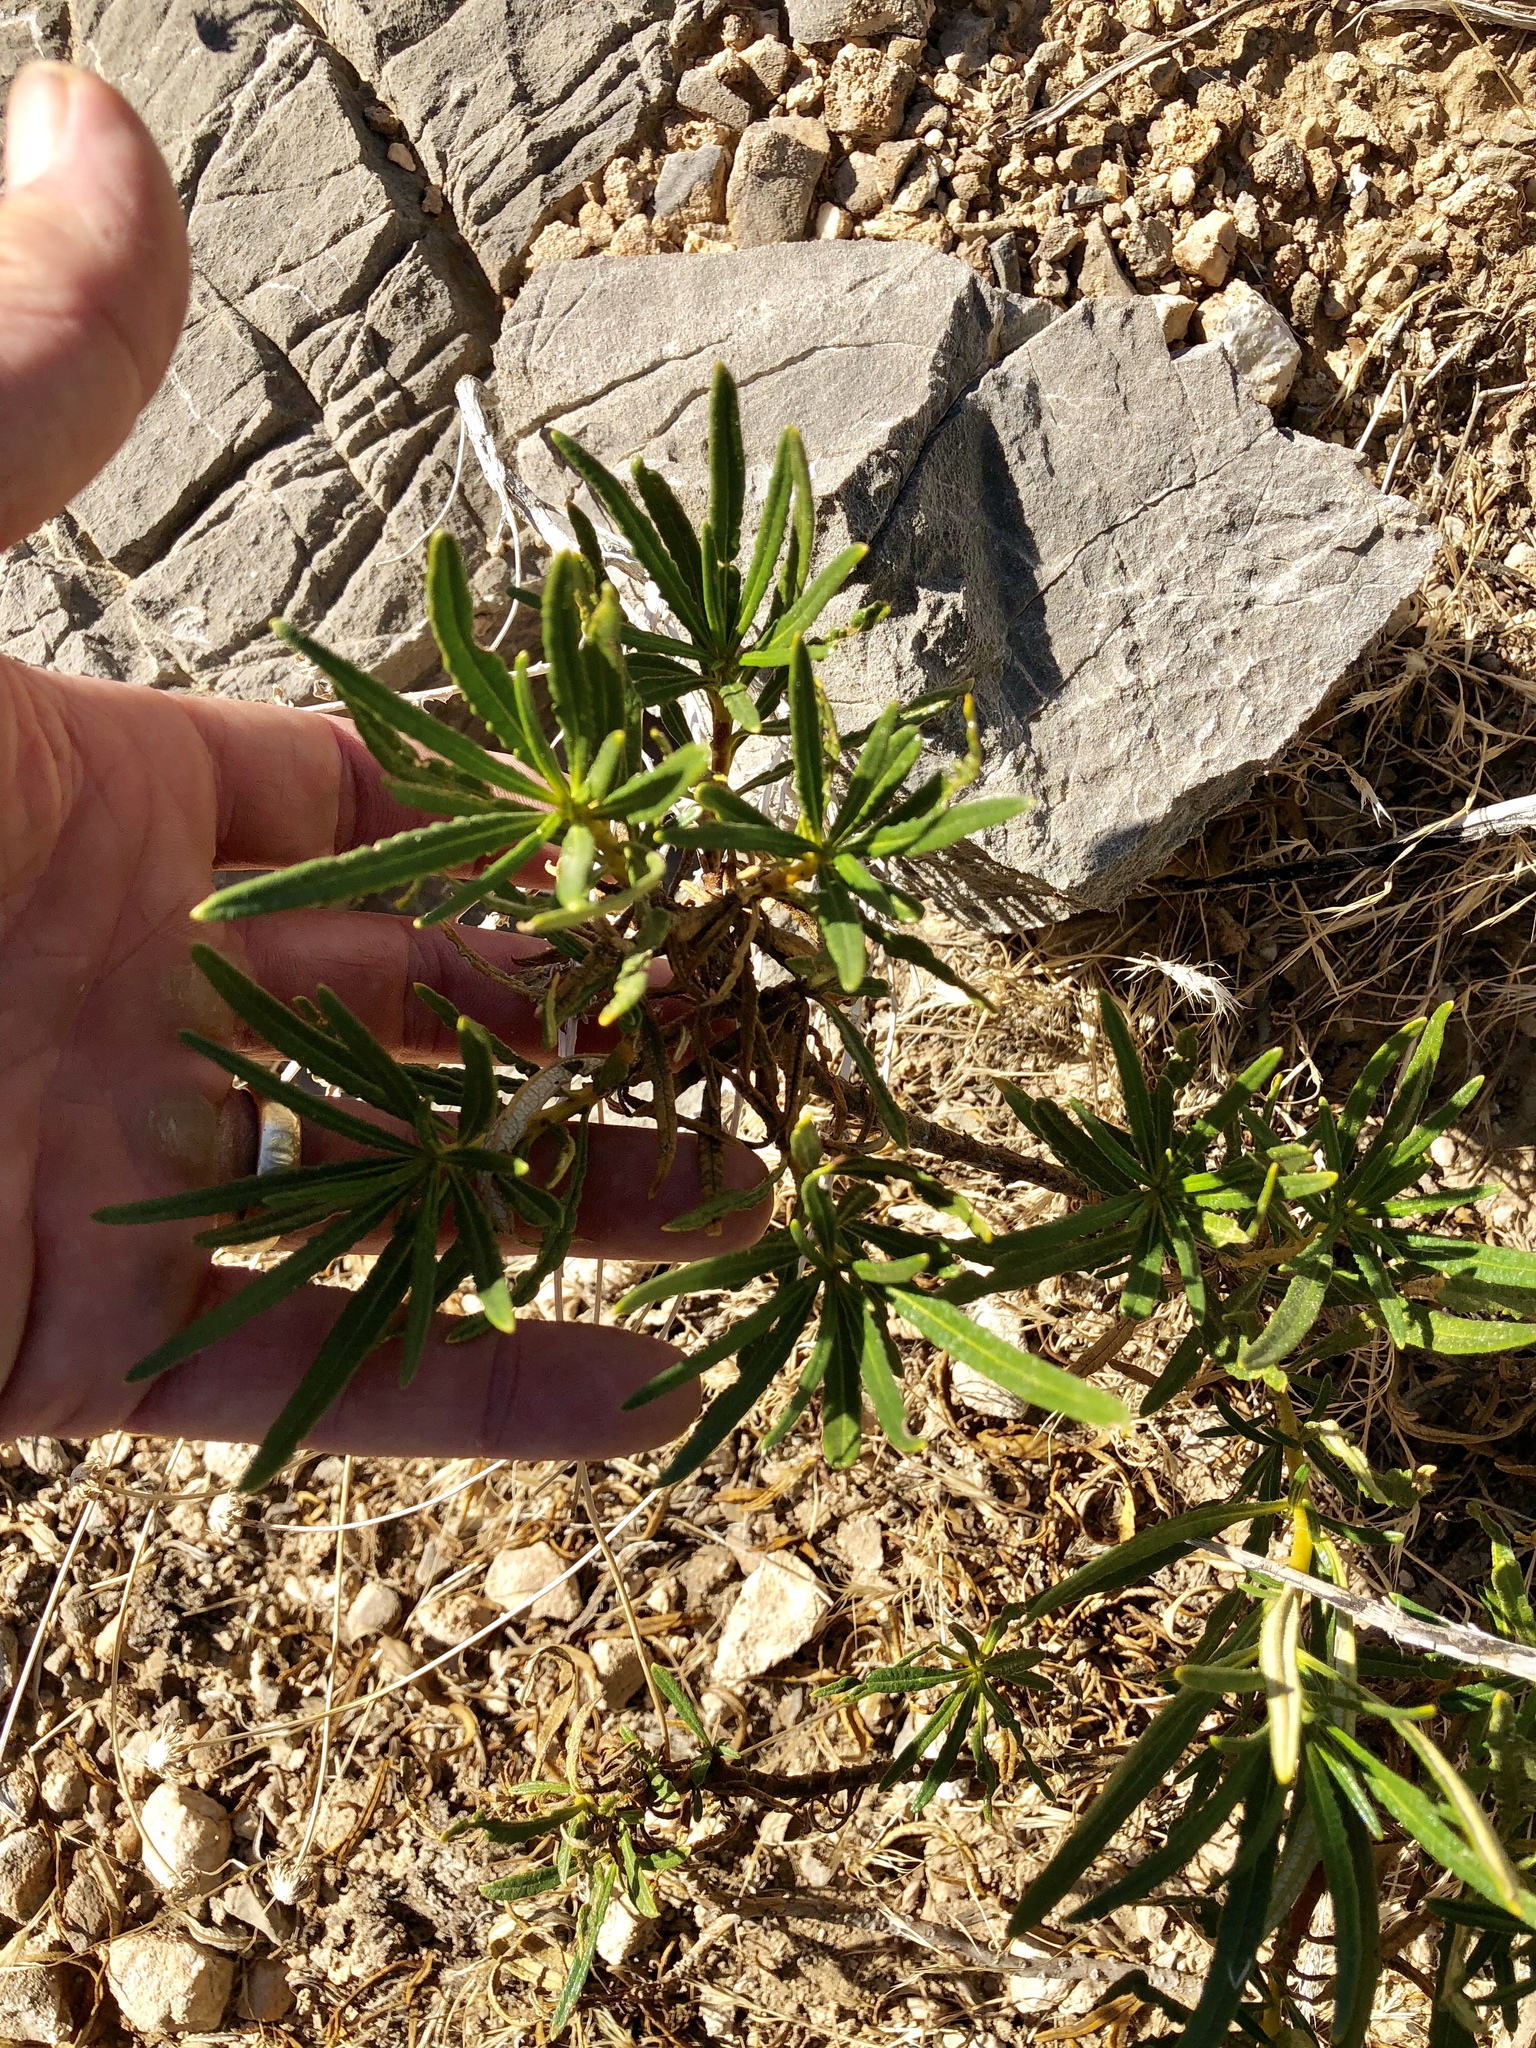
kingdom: Plantae
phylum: Tracheophyta
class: Magnoliopsida
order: Boraginales
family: Namaceae
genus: Eriodictyon
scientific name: Eriodictyon angustifolium
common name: Narrow-leaf yerba santa
